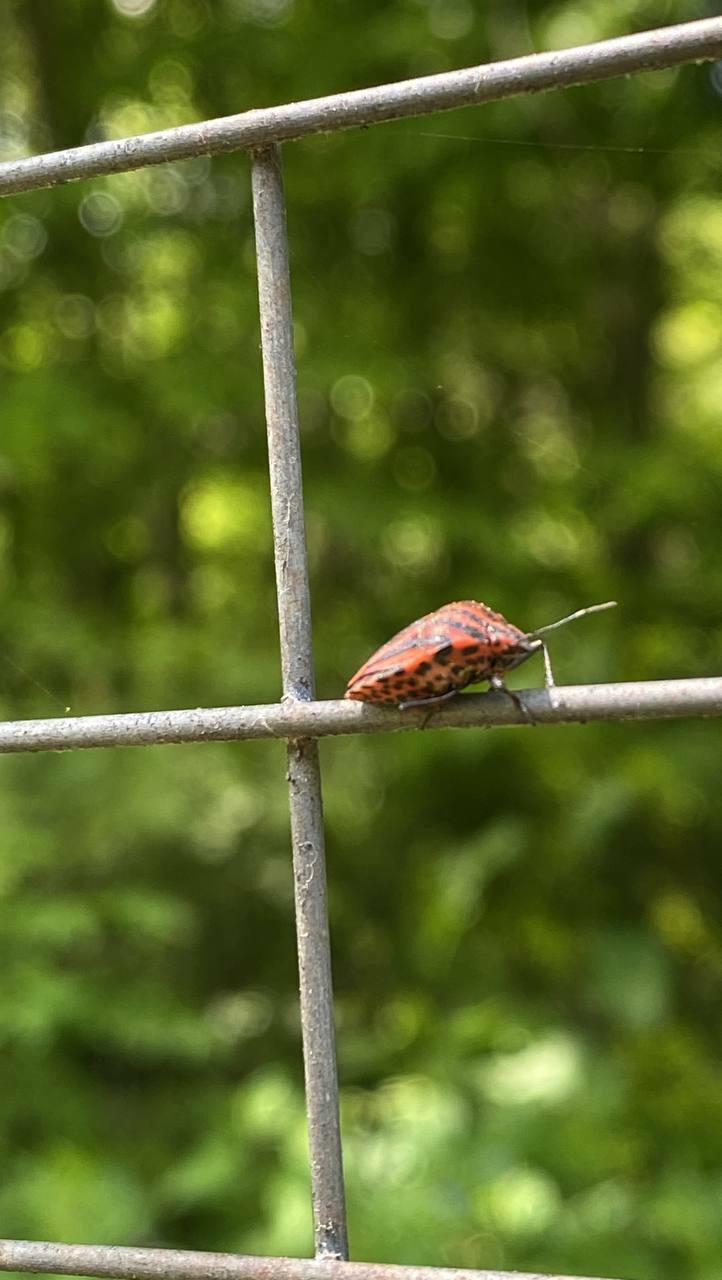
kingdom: Animalia
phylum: Arthropoda
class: Insecta
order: Hemiptera
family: Pentatomidae
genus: Graphosoma
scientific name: Graphosoma italicum
